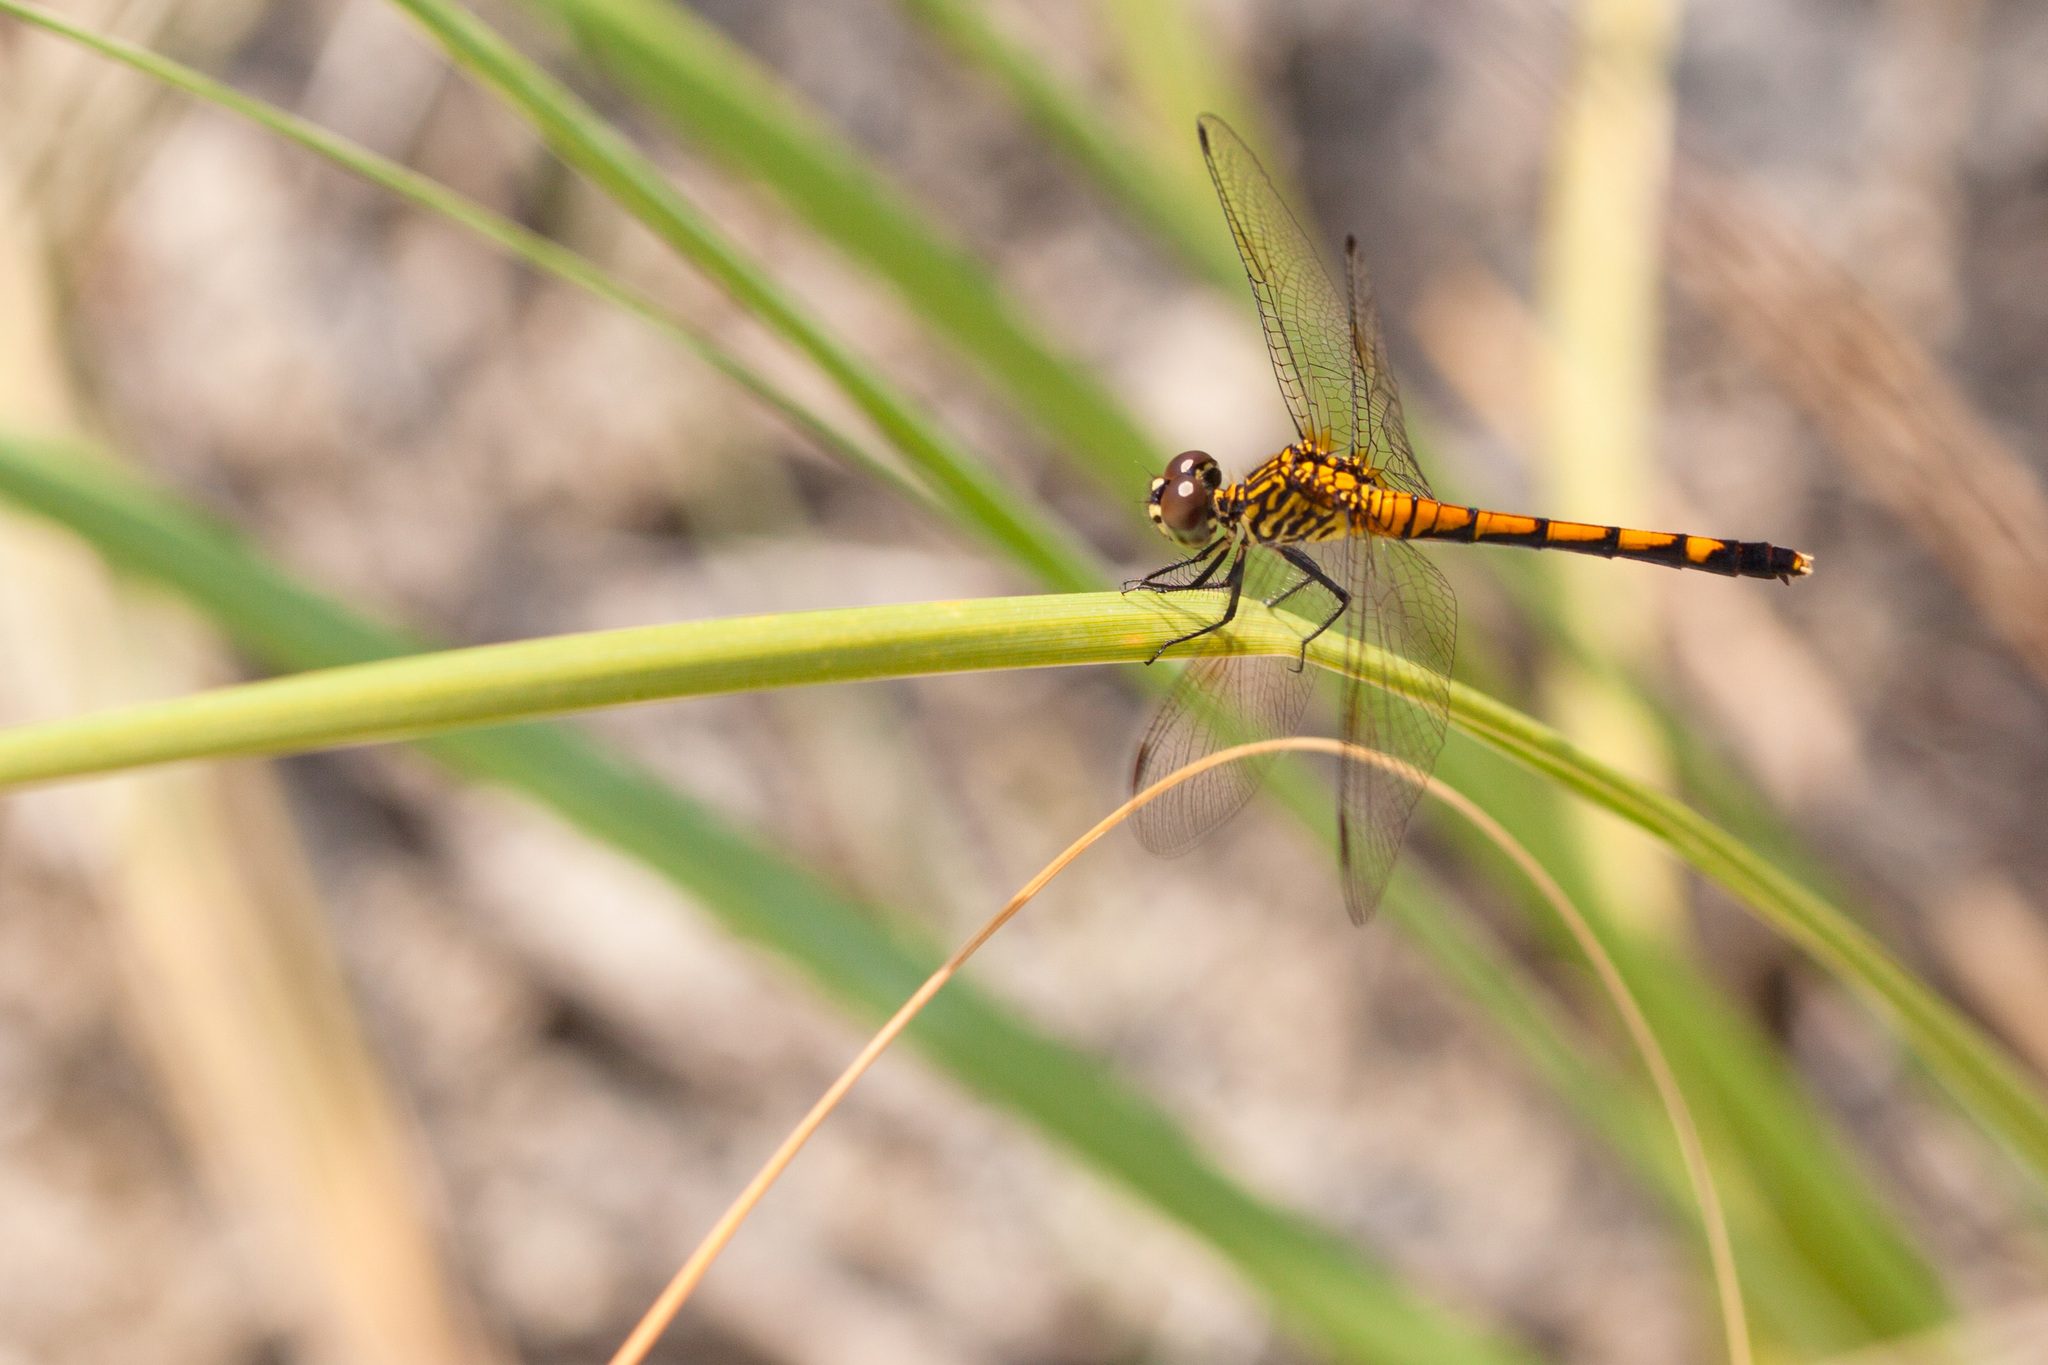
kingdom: Animalia
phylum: Arthropoda
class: Insecta
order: Odonata
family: Libellulidae
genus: Erythrodiplax
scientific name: Erythrodiplax berenice
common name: Seaside dragonlet
